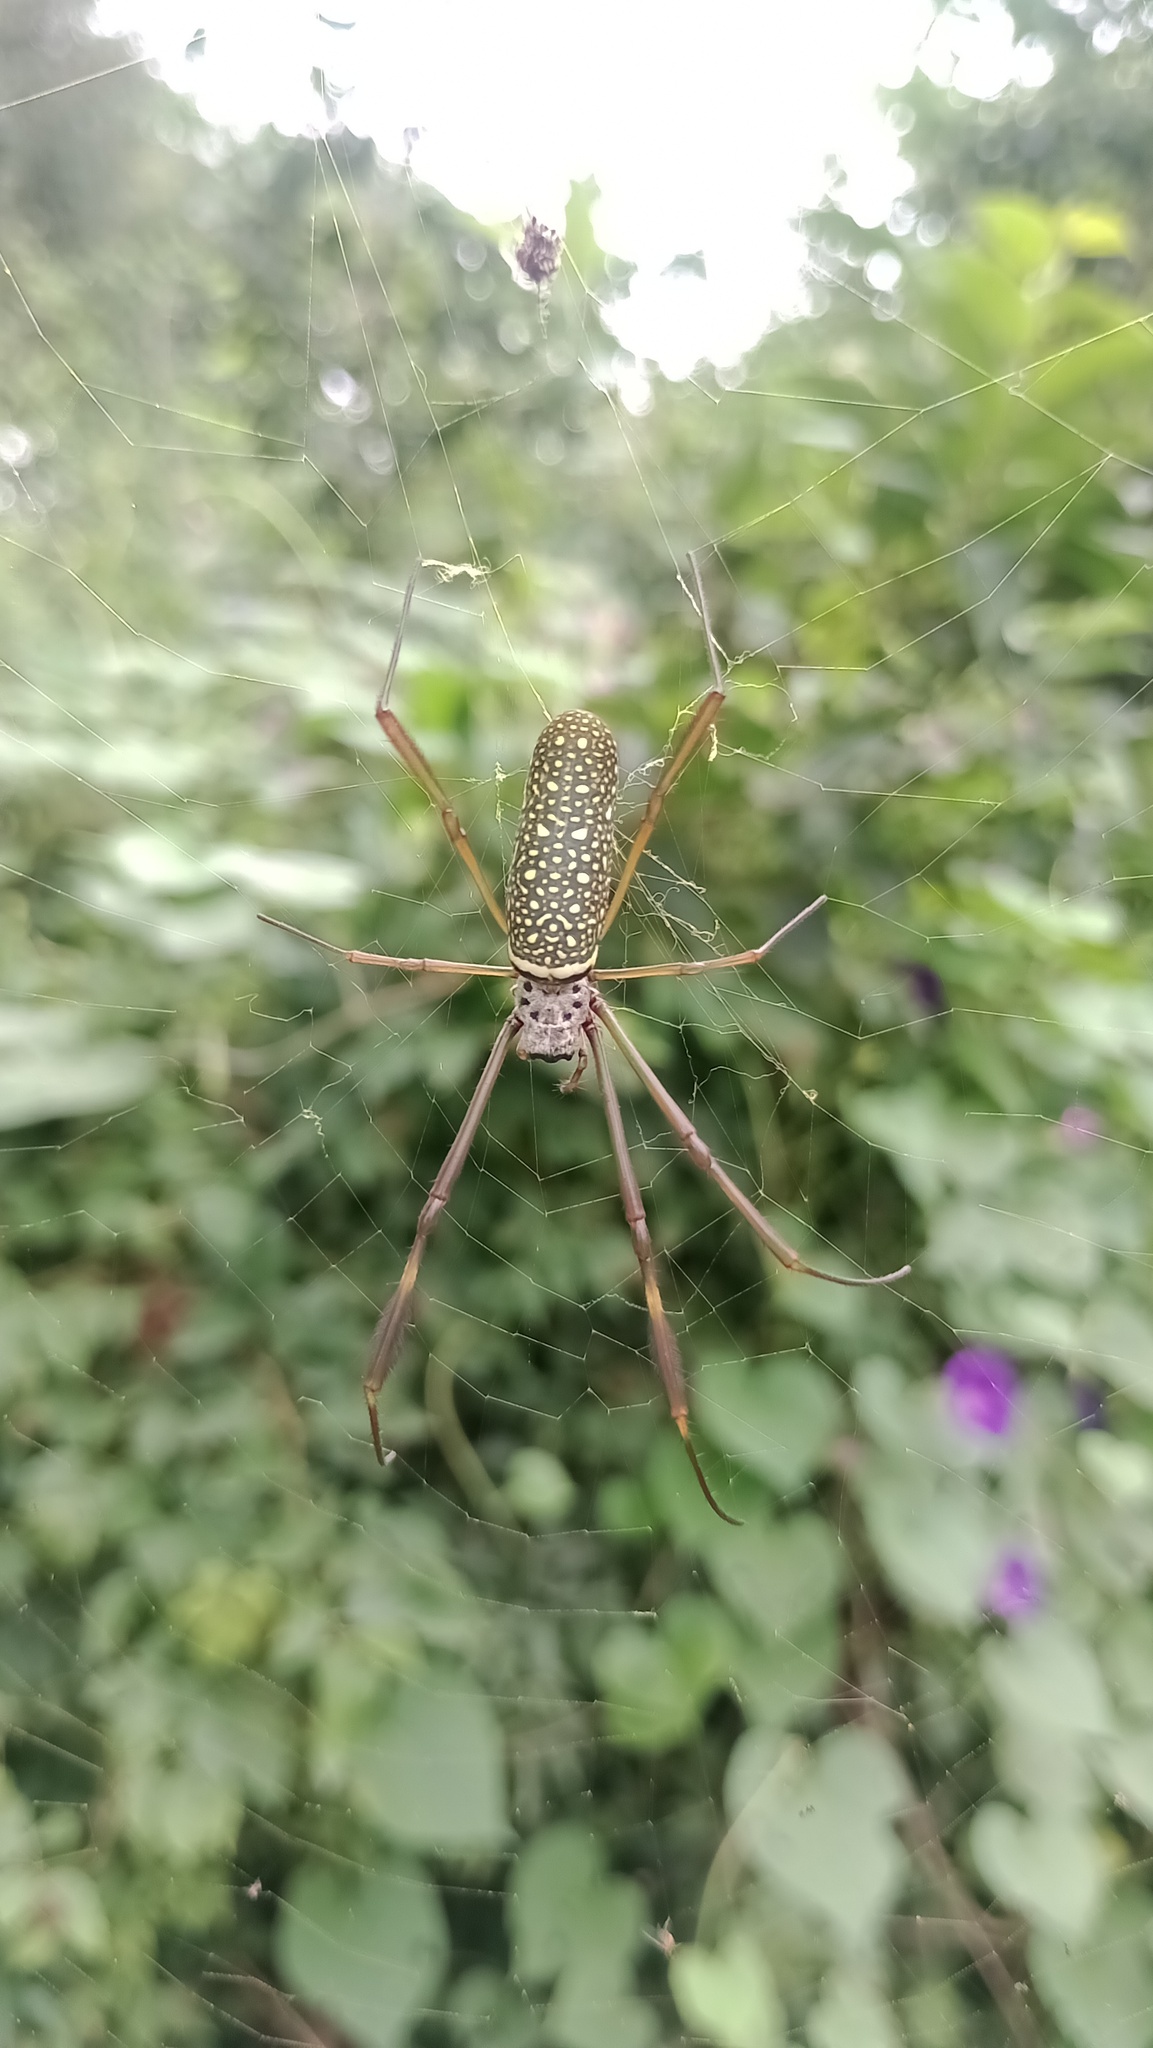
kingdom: Animalia
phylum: Arthropoda
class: Arachnida
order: Araneae
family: Araneidae
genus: Trichonephila
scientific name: Trichonephila clavipes
